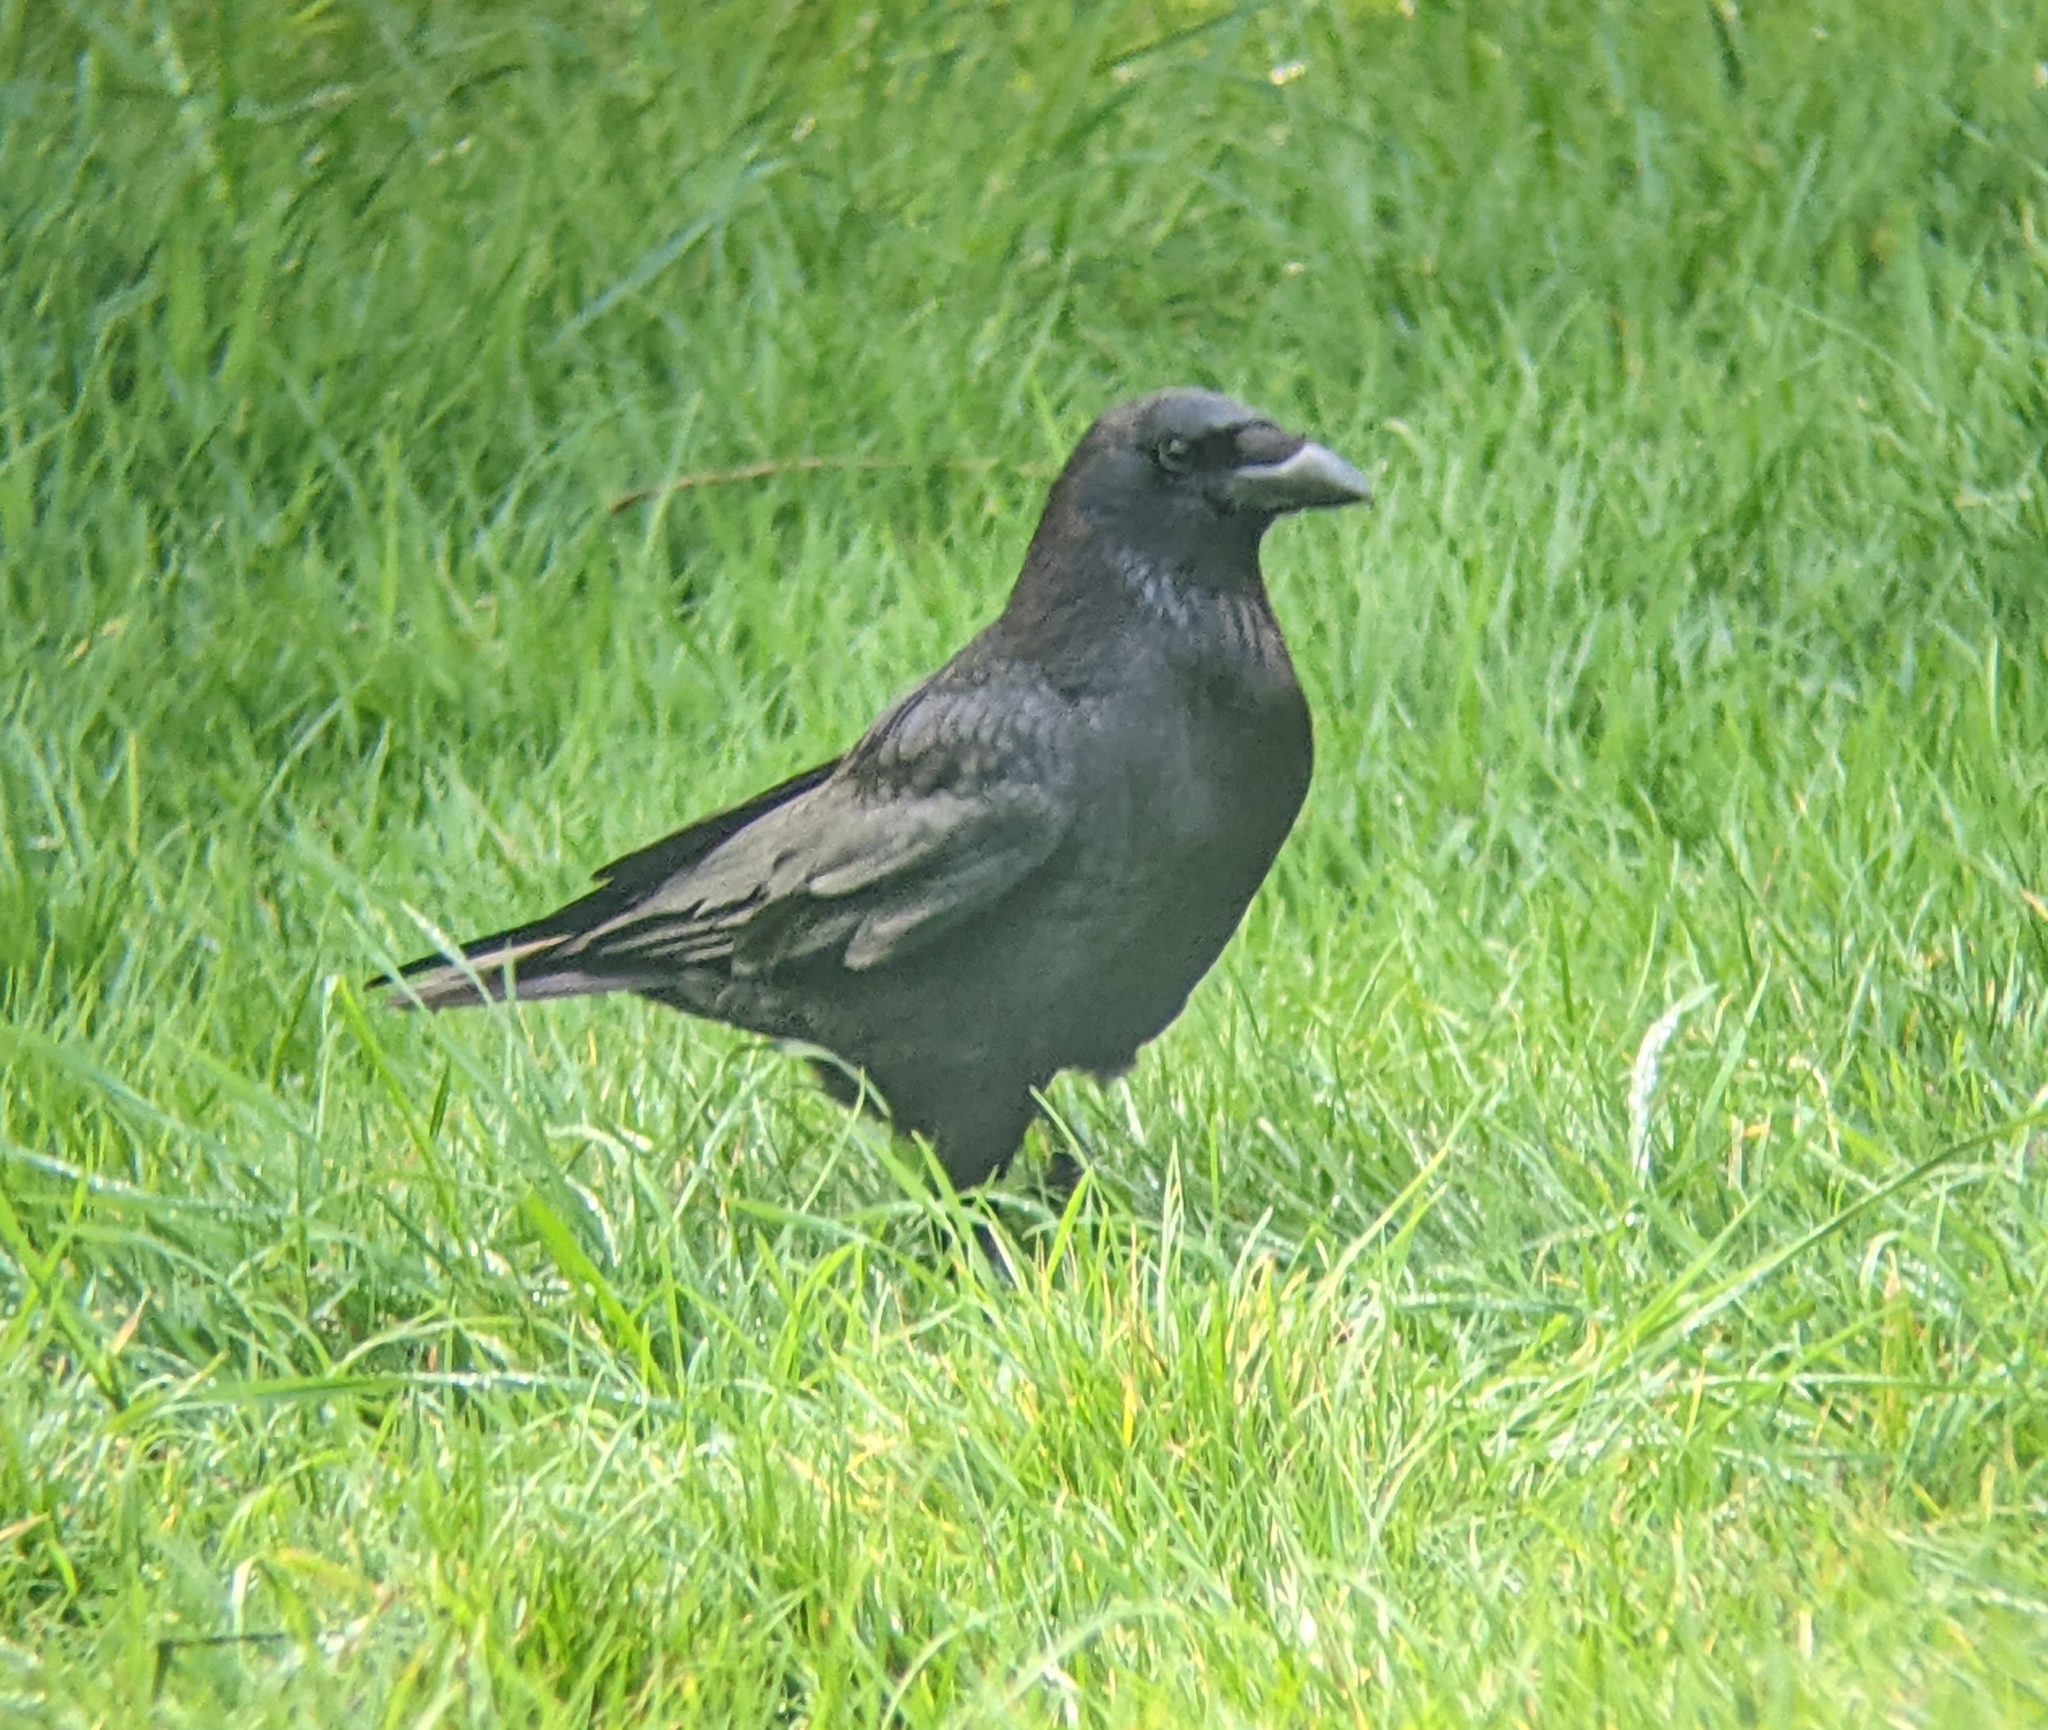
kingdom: Animalia
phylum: Chordata
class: Aves
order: Passeriformes
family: Corvidae
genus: Corvus
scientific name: Corvus corone
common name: Carrion crow
